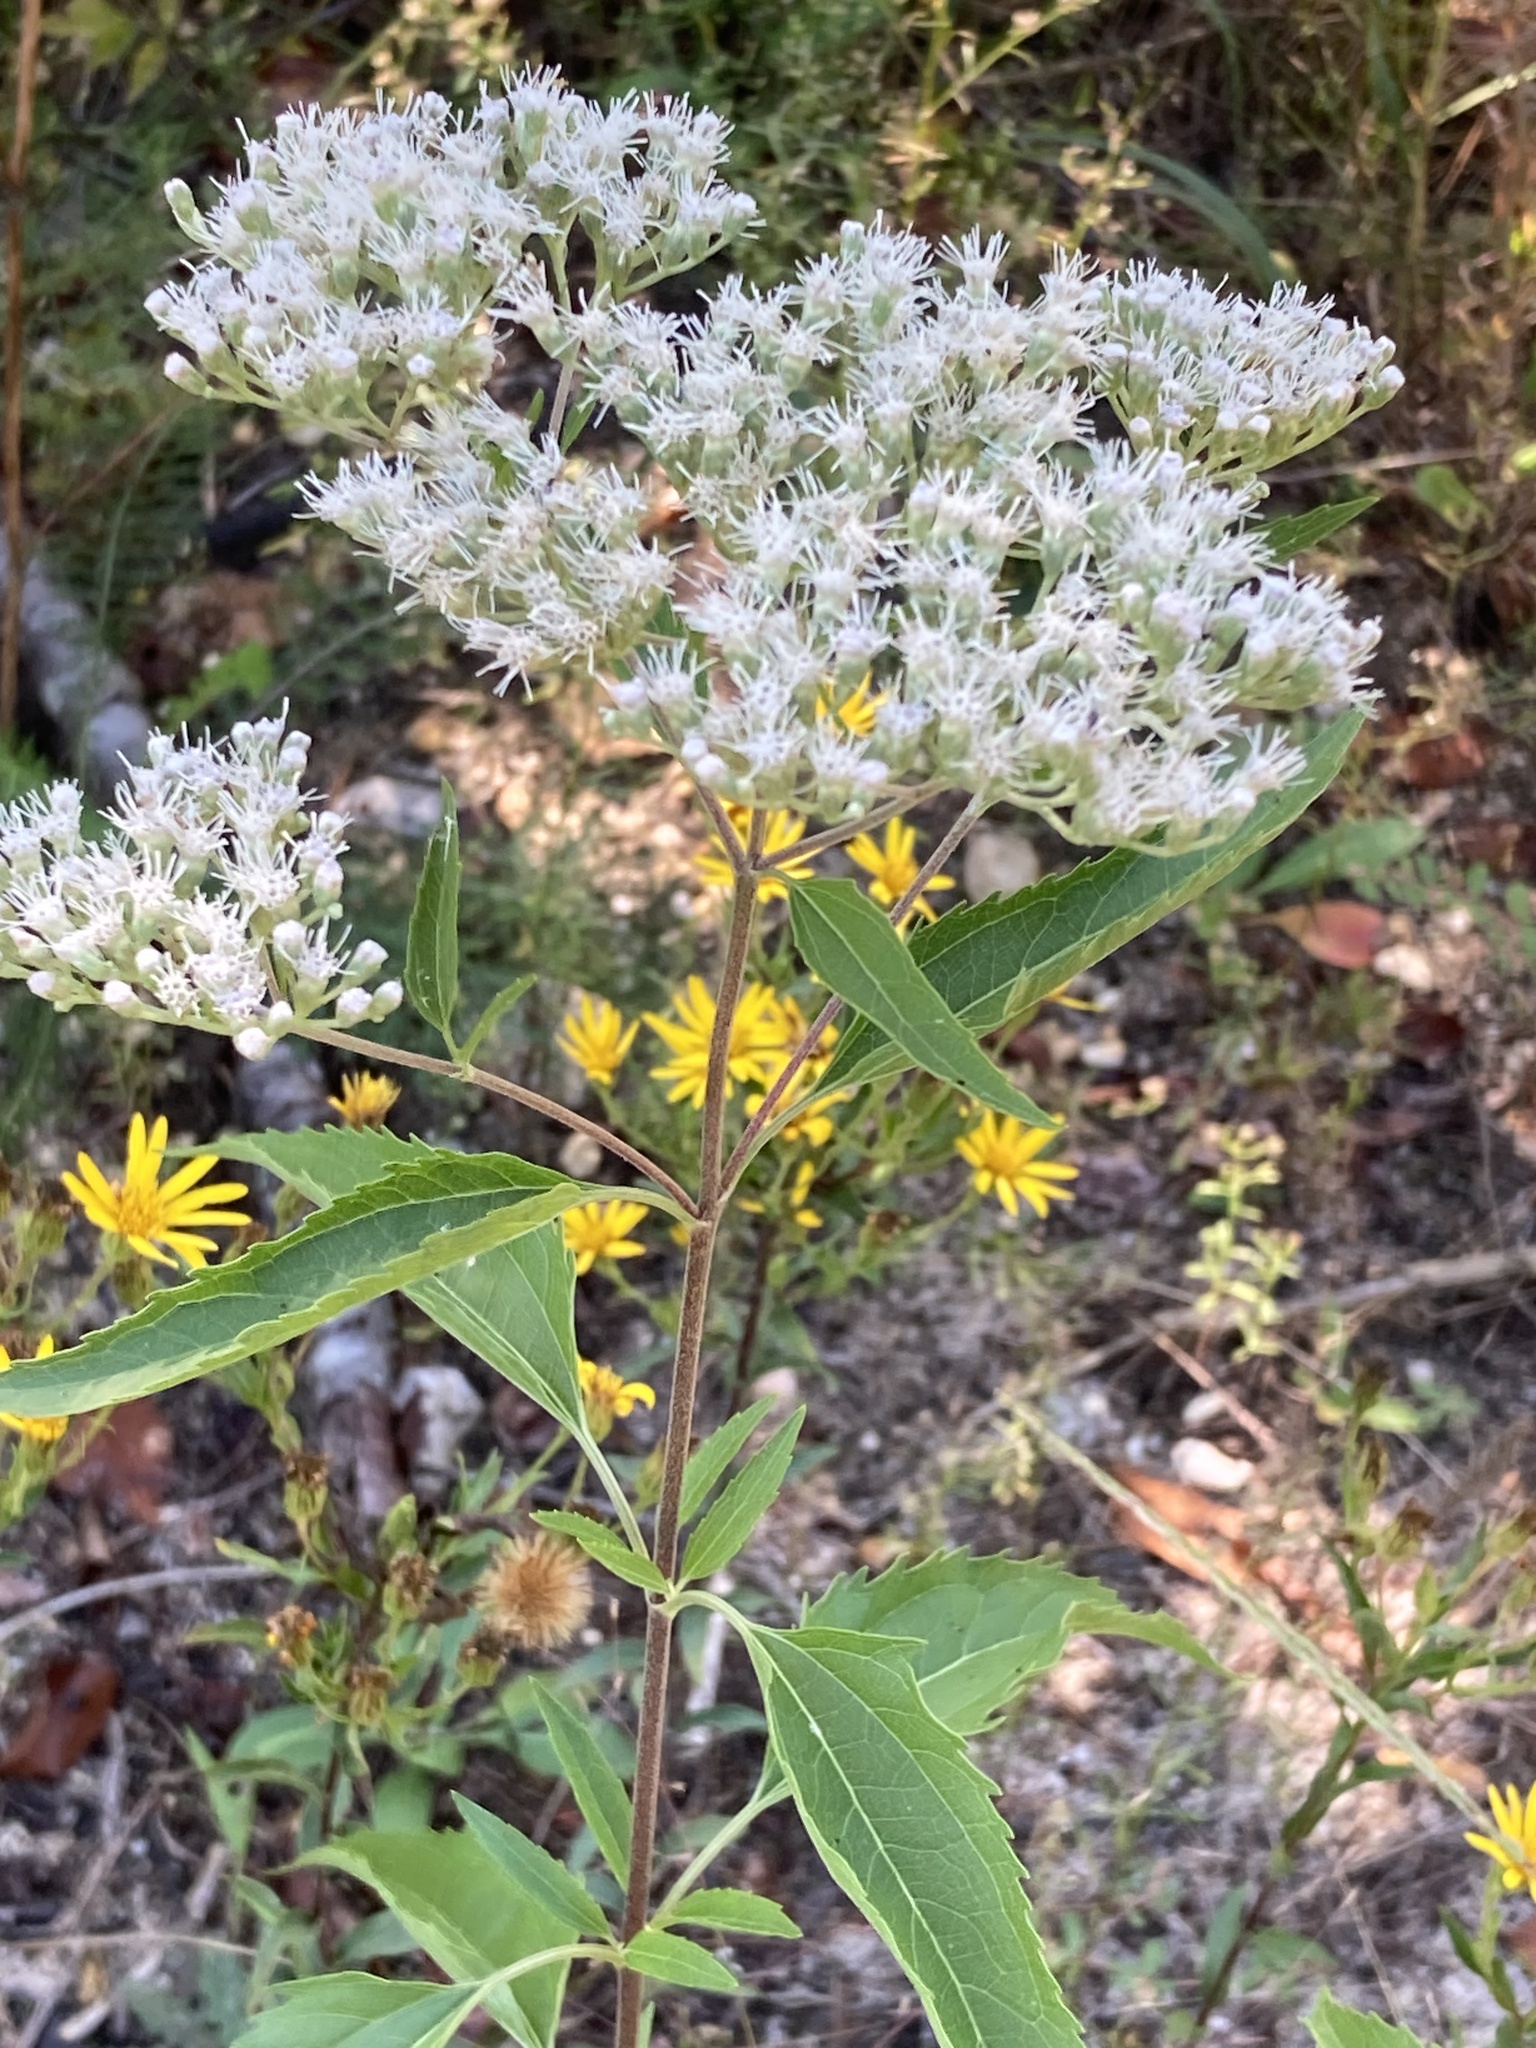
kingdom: Plantae
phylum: Tracheophyta
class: Magnoliopsida
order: Asterales
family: Asteraceae
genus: Eupatorium
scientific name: Eupatorium serotinum
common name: Late boneset
